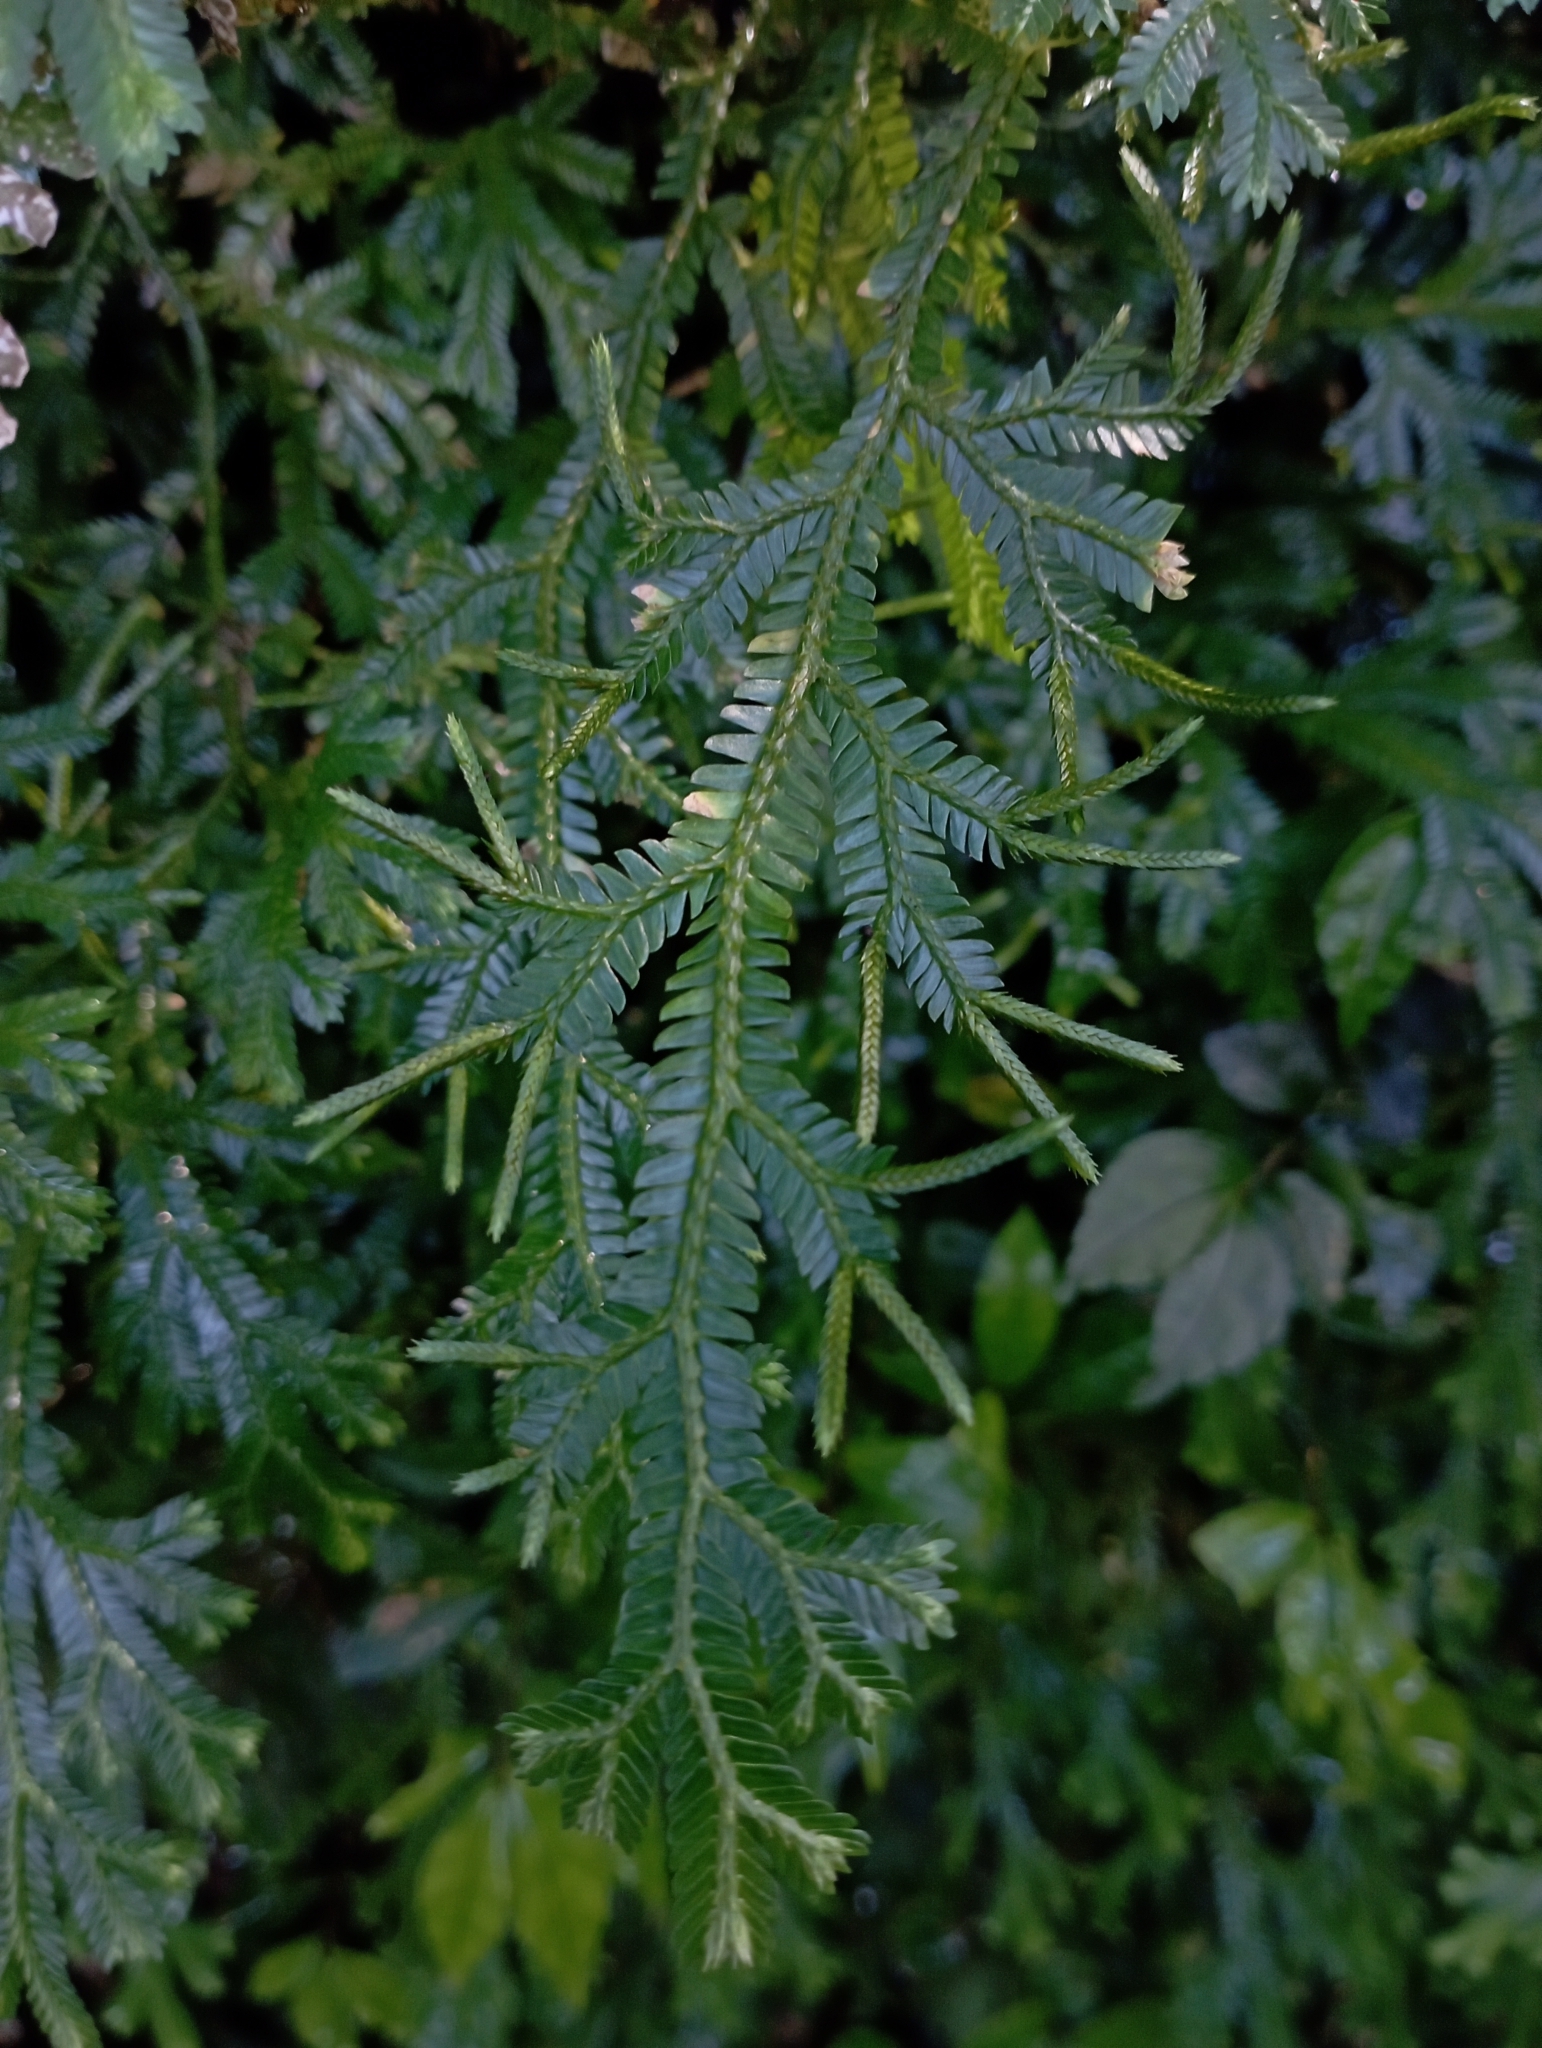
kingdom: Plantae
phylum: Tracheophyta
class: Lycopodiopsida
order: Selaginellales
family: Selaginellaceae
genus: Selaginella
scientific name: Selaginella doederleinii
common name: Greater selaginella
